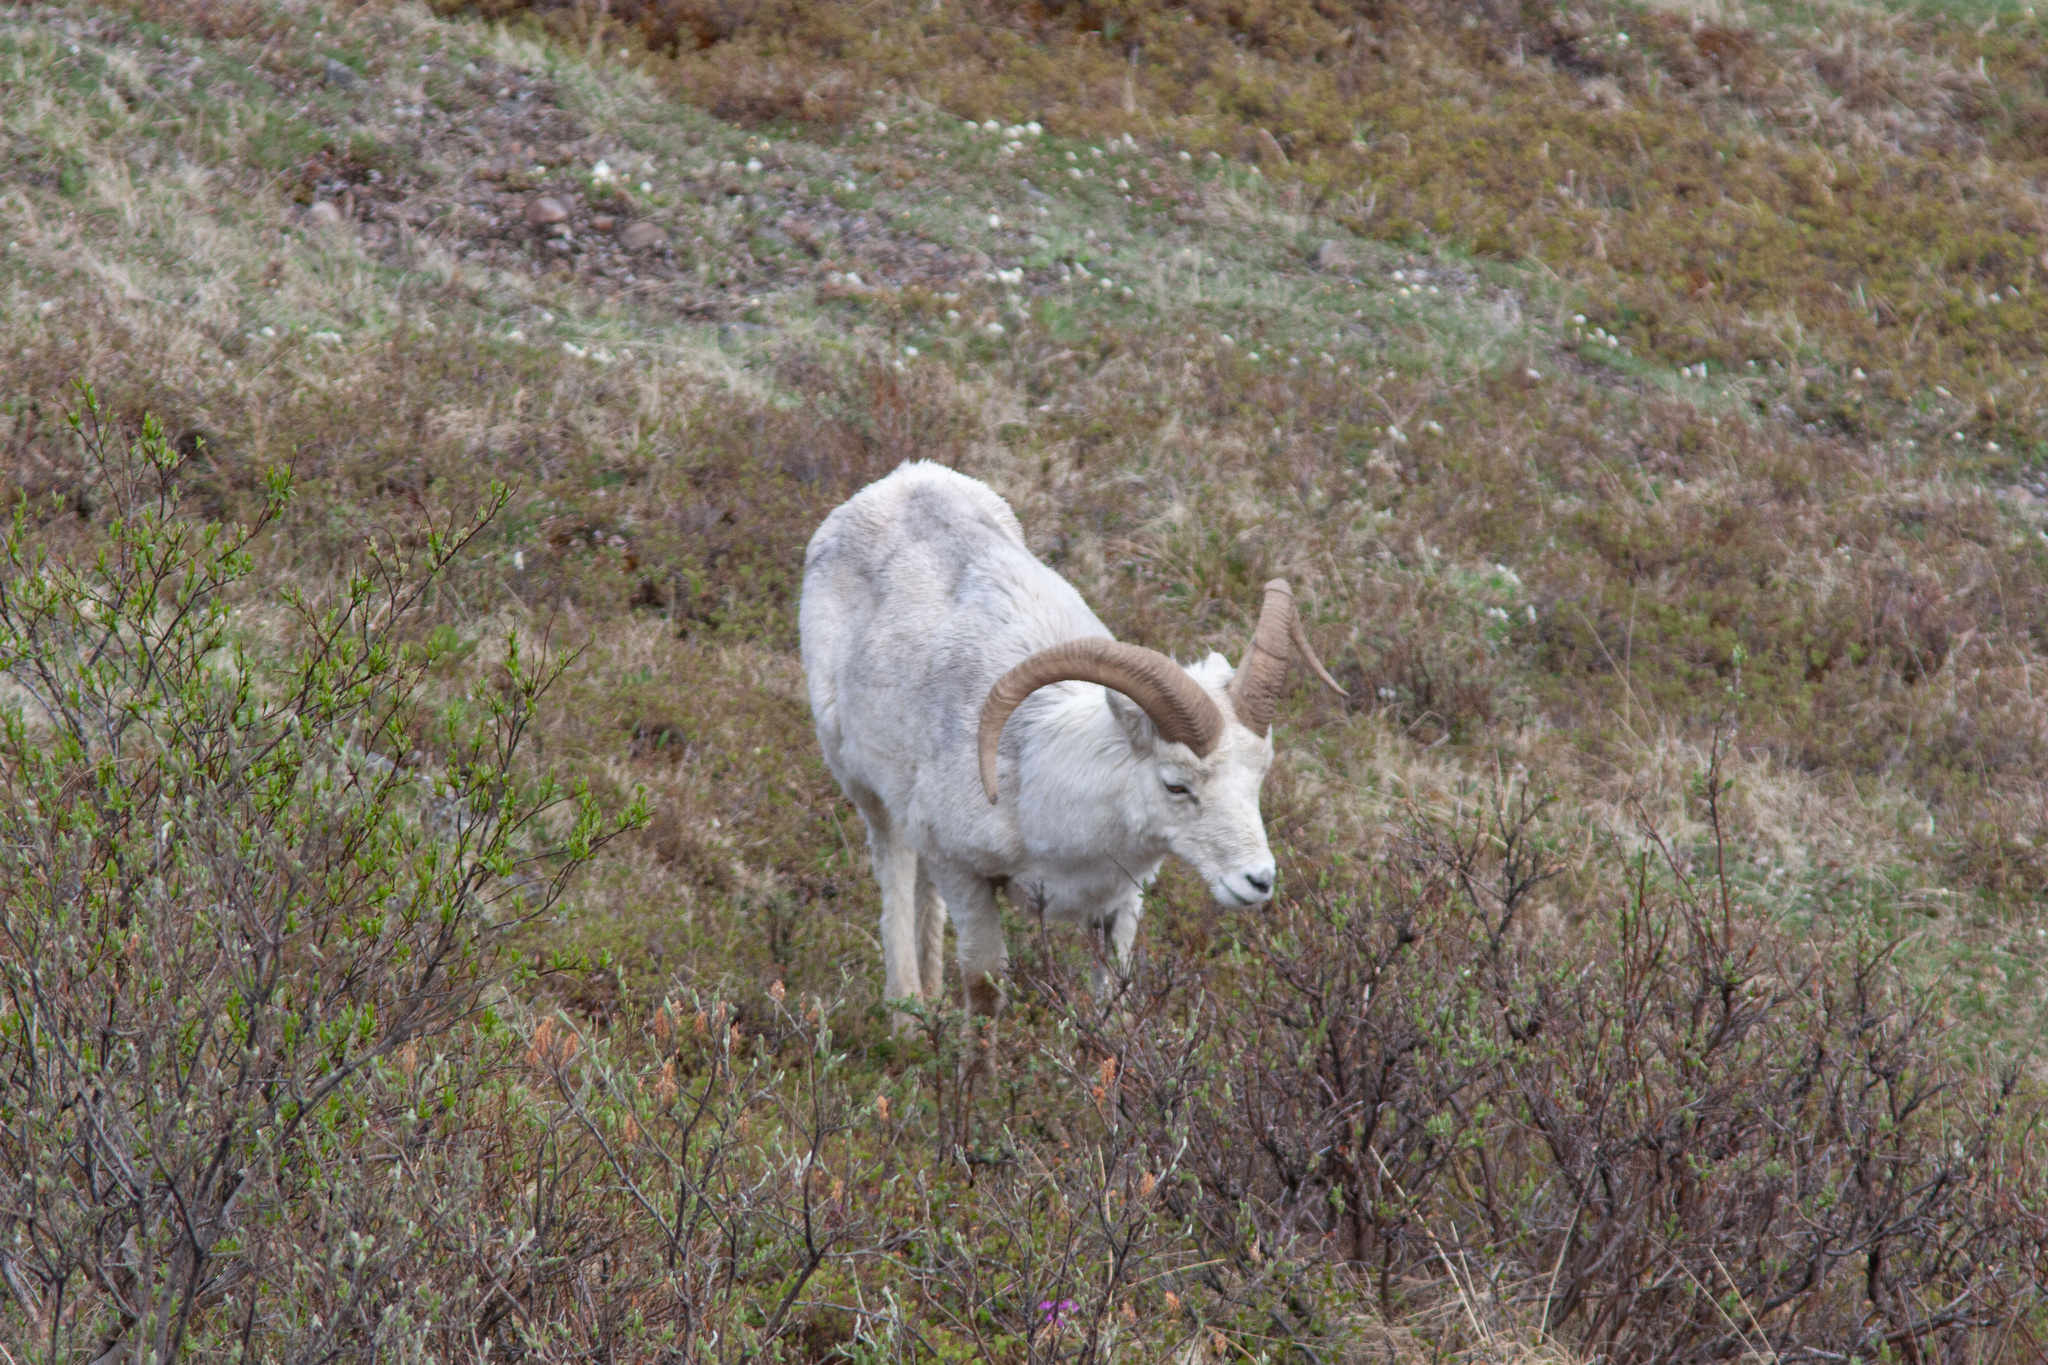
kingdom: Animalia
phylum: Chordata
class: Mammalia
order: Artiodactyla
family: Bovidae
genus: Ovis
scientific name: Ovis dalli
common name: Dall's sheep
